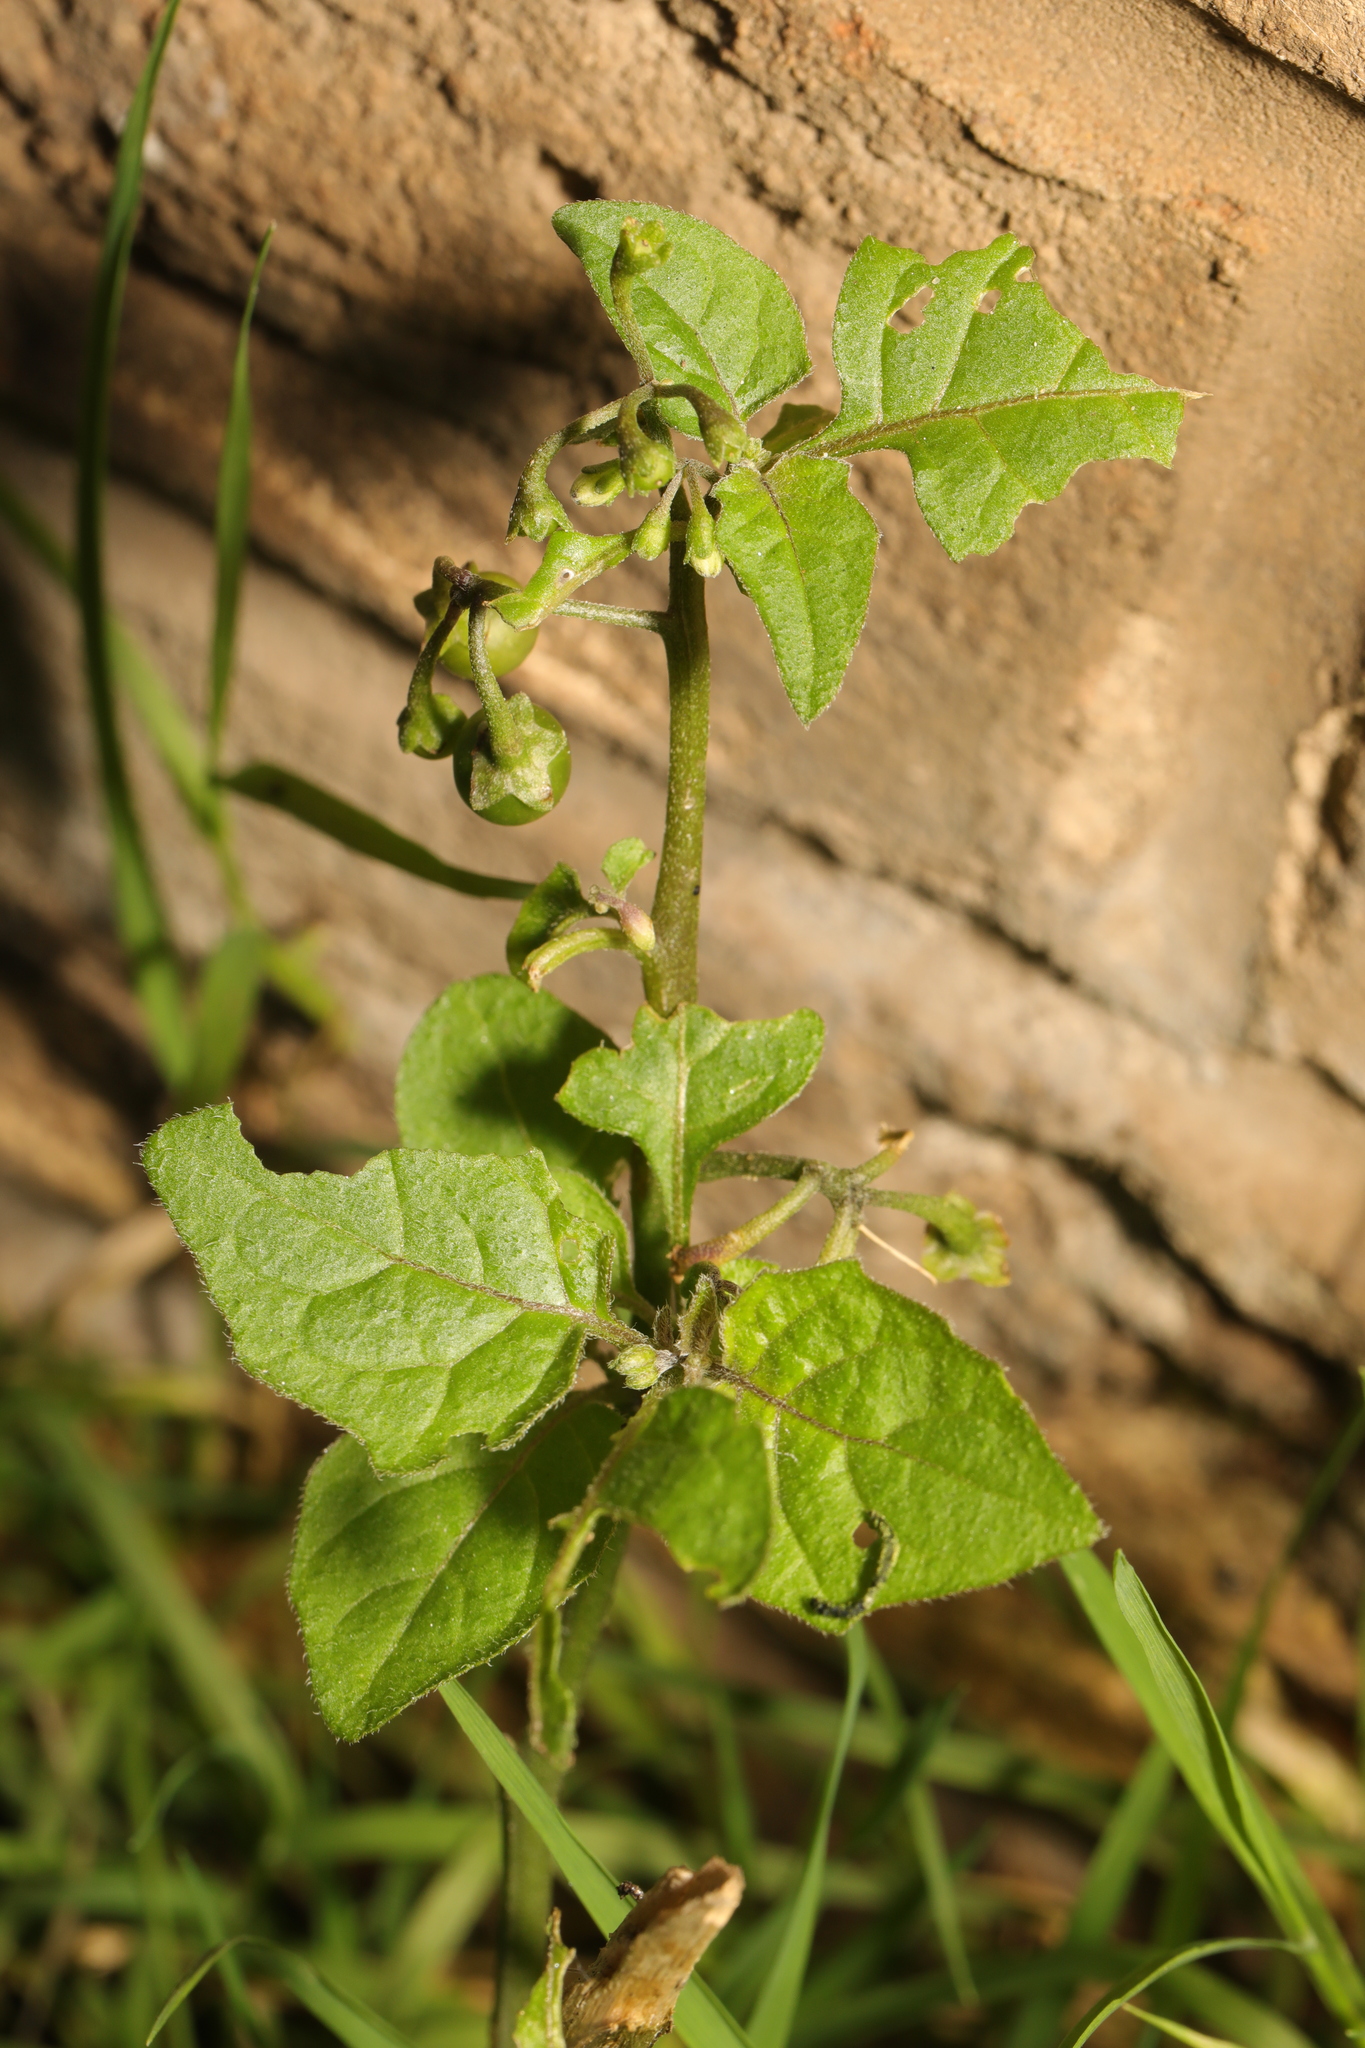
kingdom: Plantae
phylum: Tracheophyta
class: Magnoliopsida
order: Solanales
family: Solanaceae
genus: Solanum
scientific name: Solanum nigrum
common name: Black nightshade
